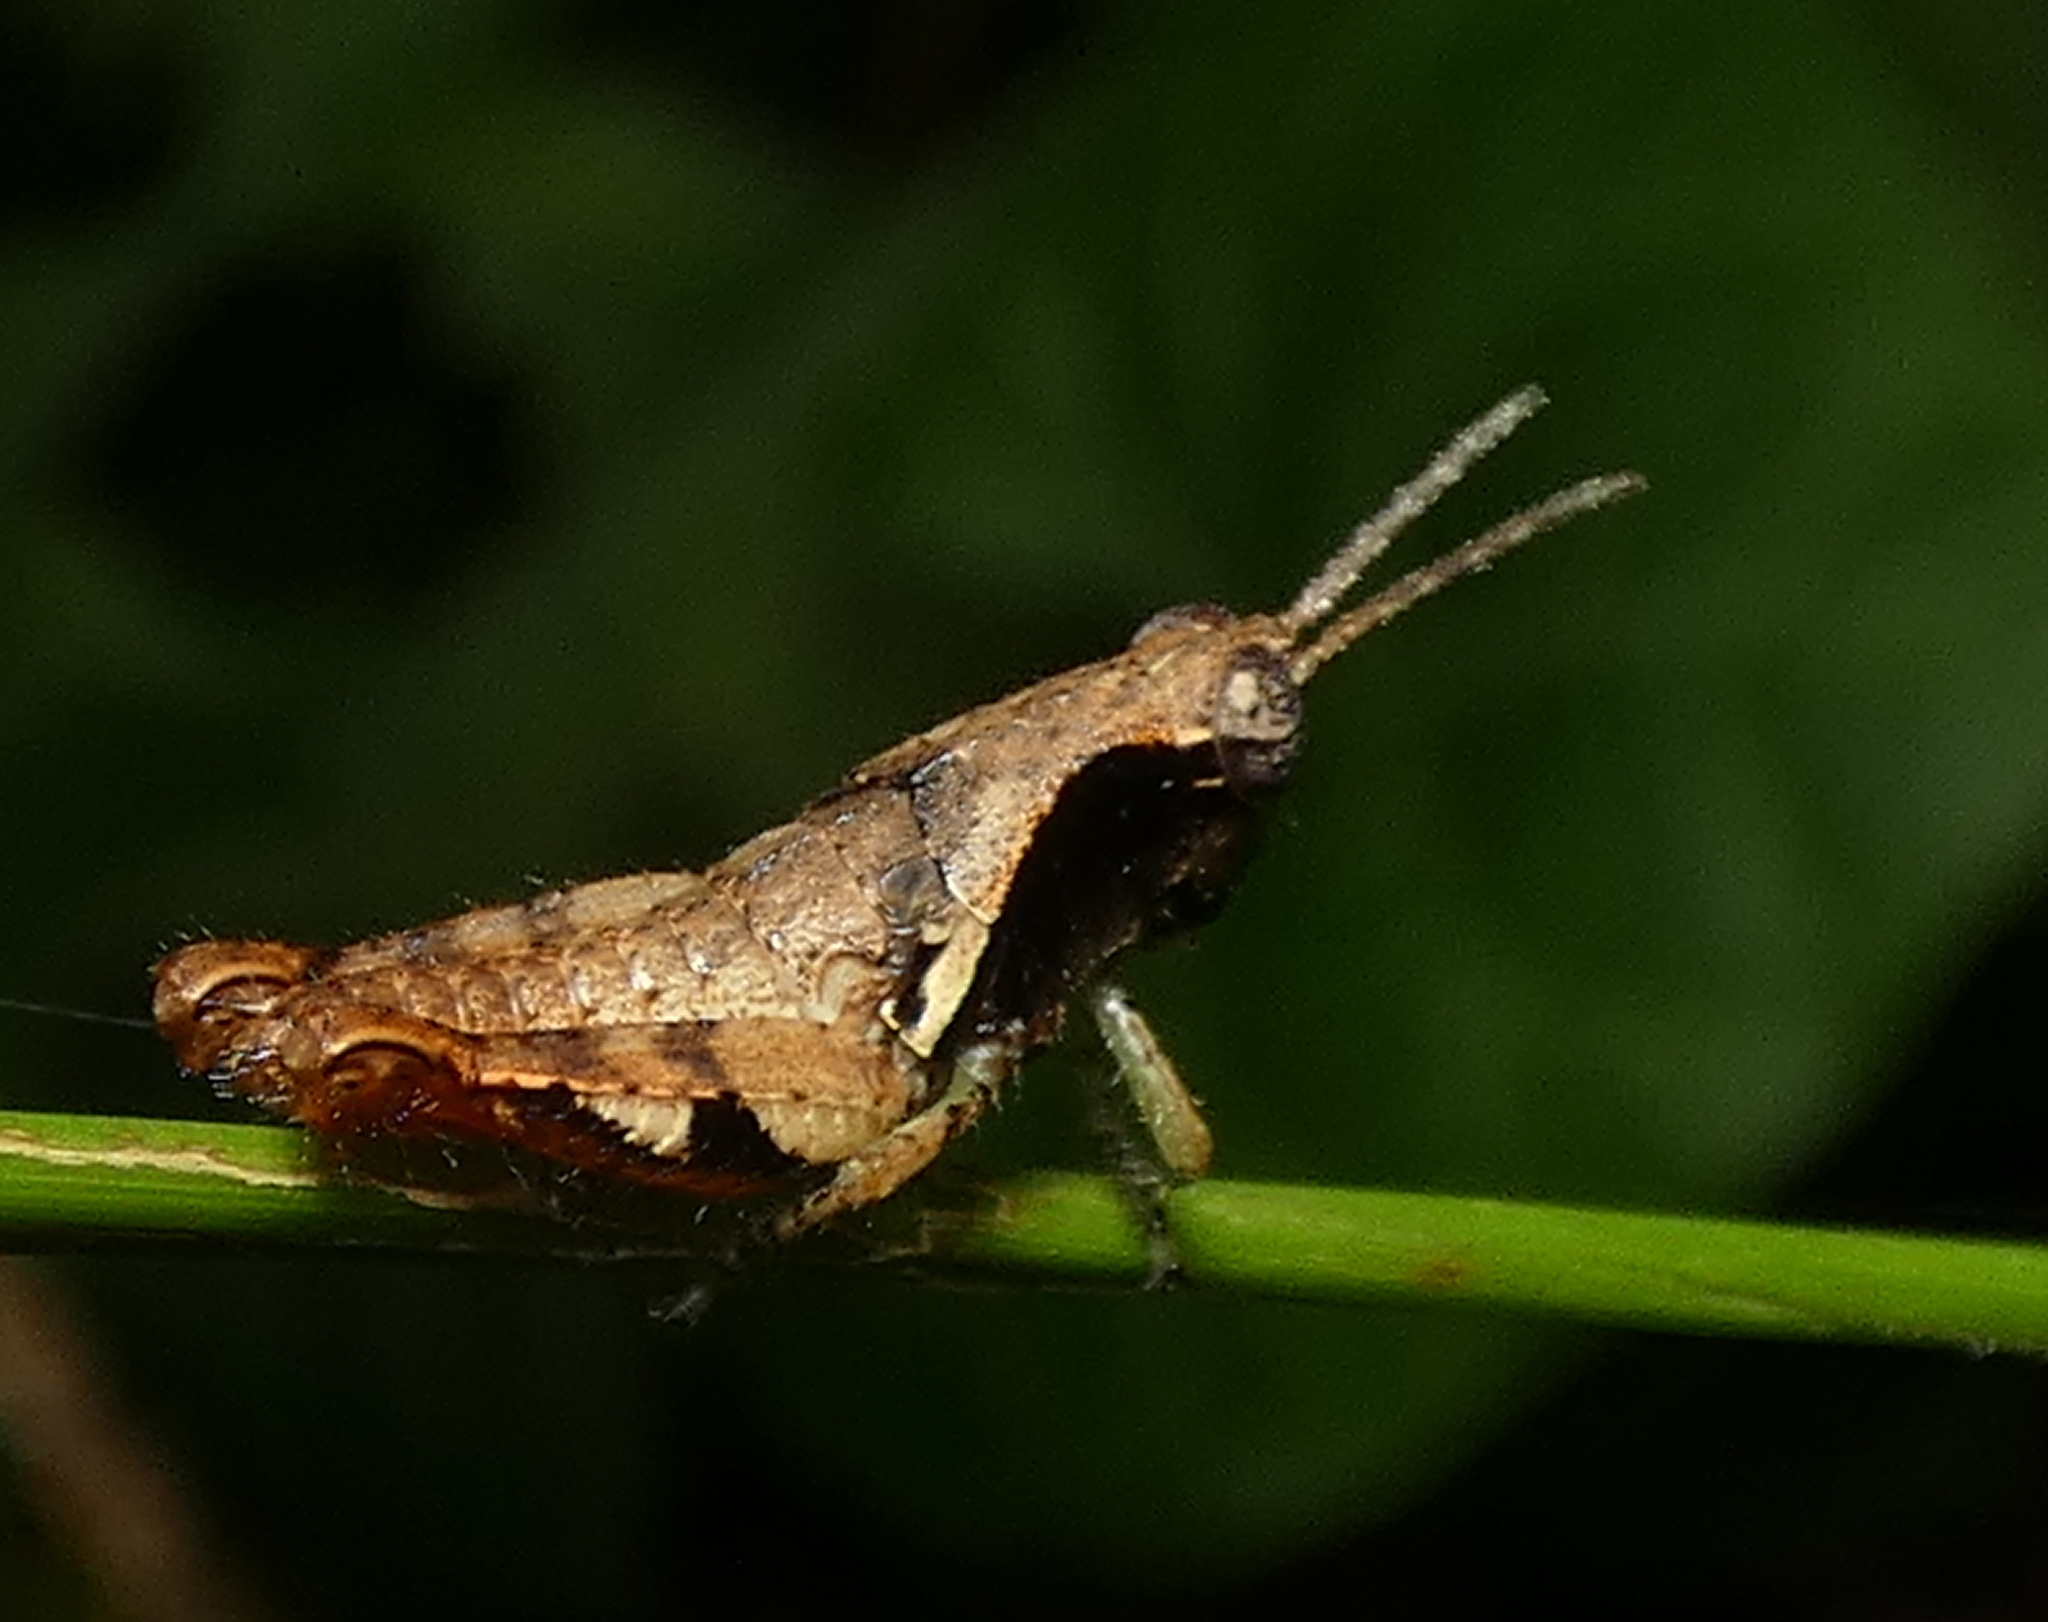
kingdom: Animalia
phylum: Arthropoda
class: Insecta
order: Orthoptera
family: Acrididae
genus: Eujivarus
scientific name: Eujivarus meridionalis
